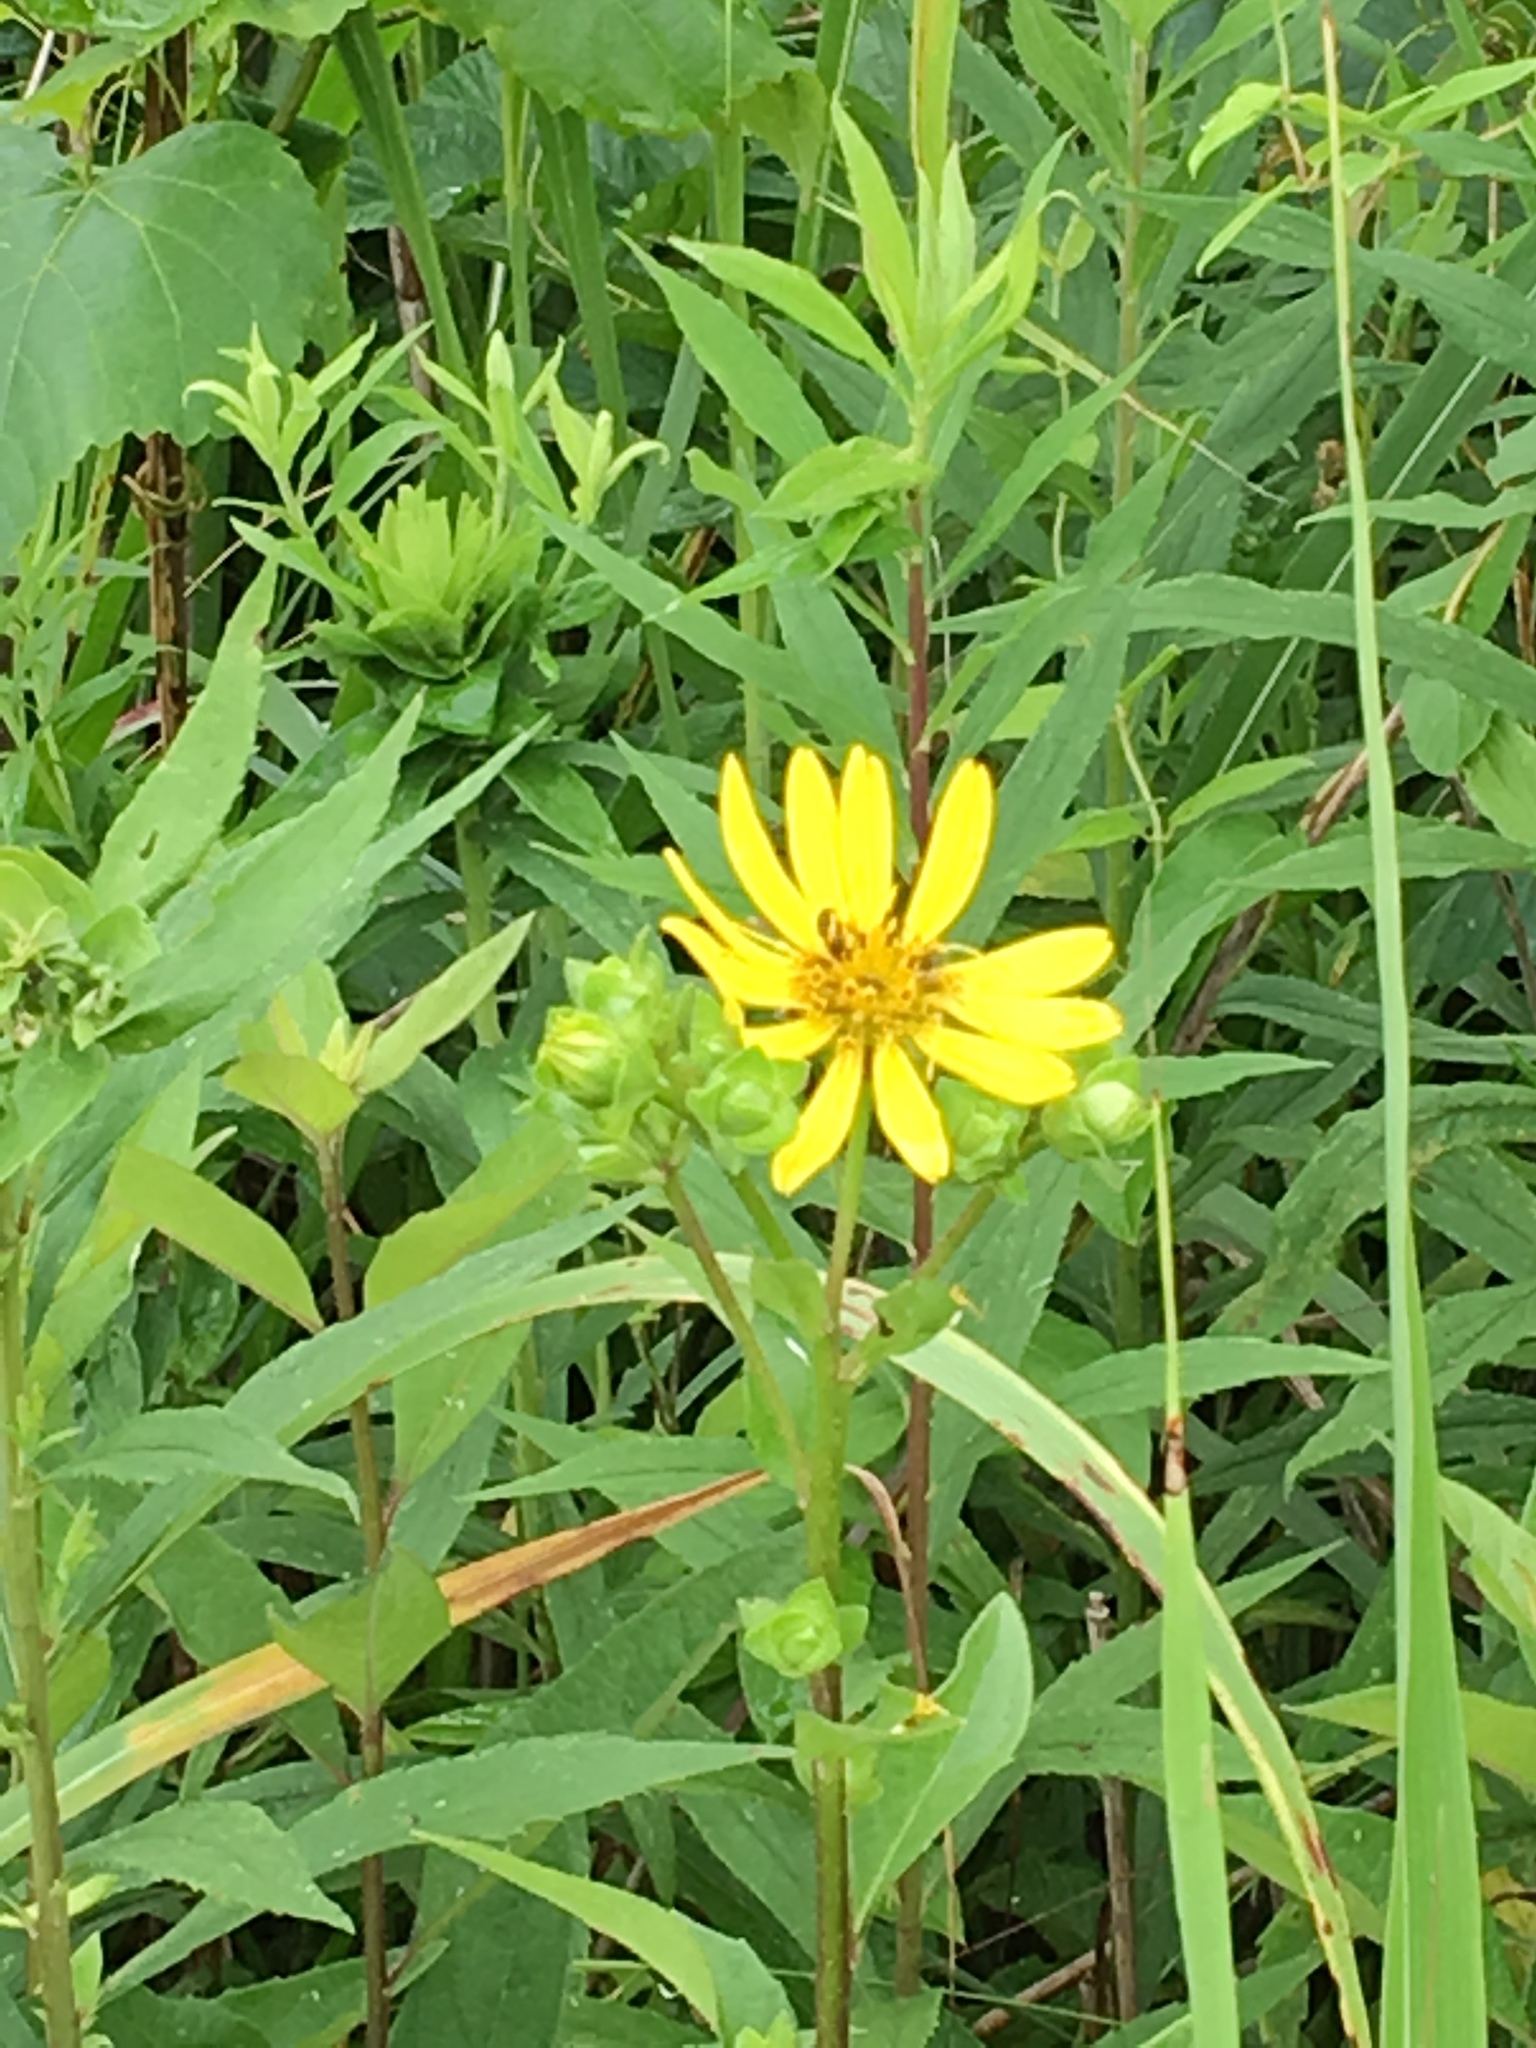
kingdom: Plantae
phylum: Tracheophyta
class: Magnoliopsida
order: Asterales
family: Asteraceae
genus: Silphium
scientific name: Silphium asteriscus
